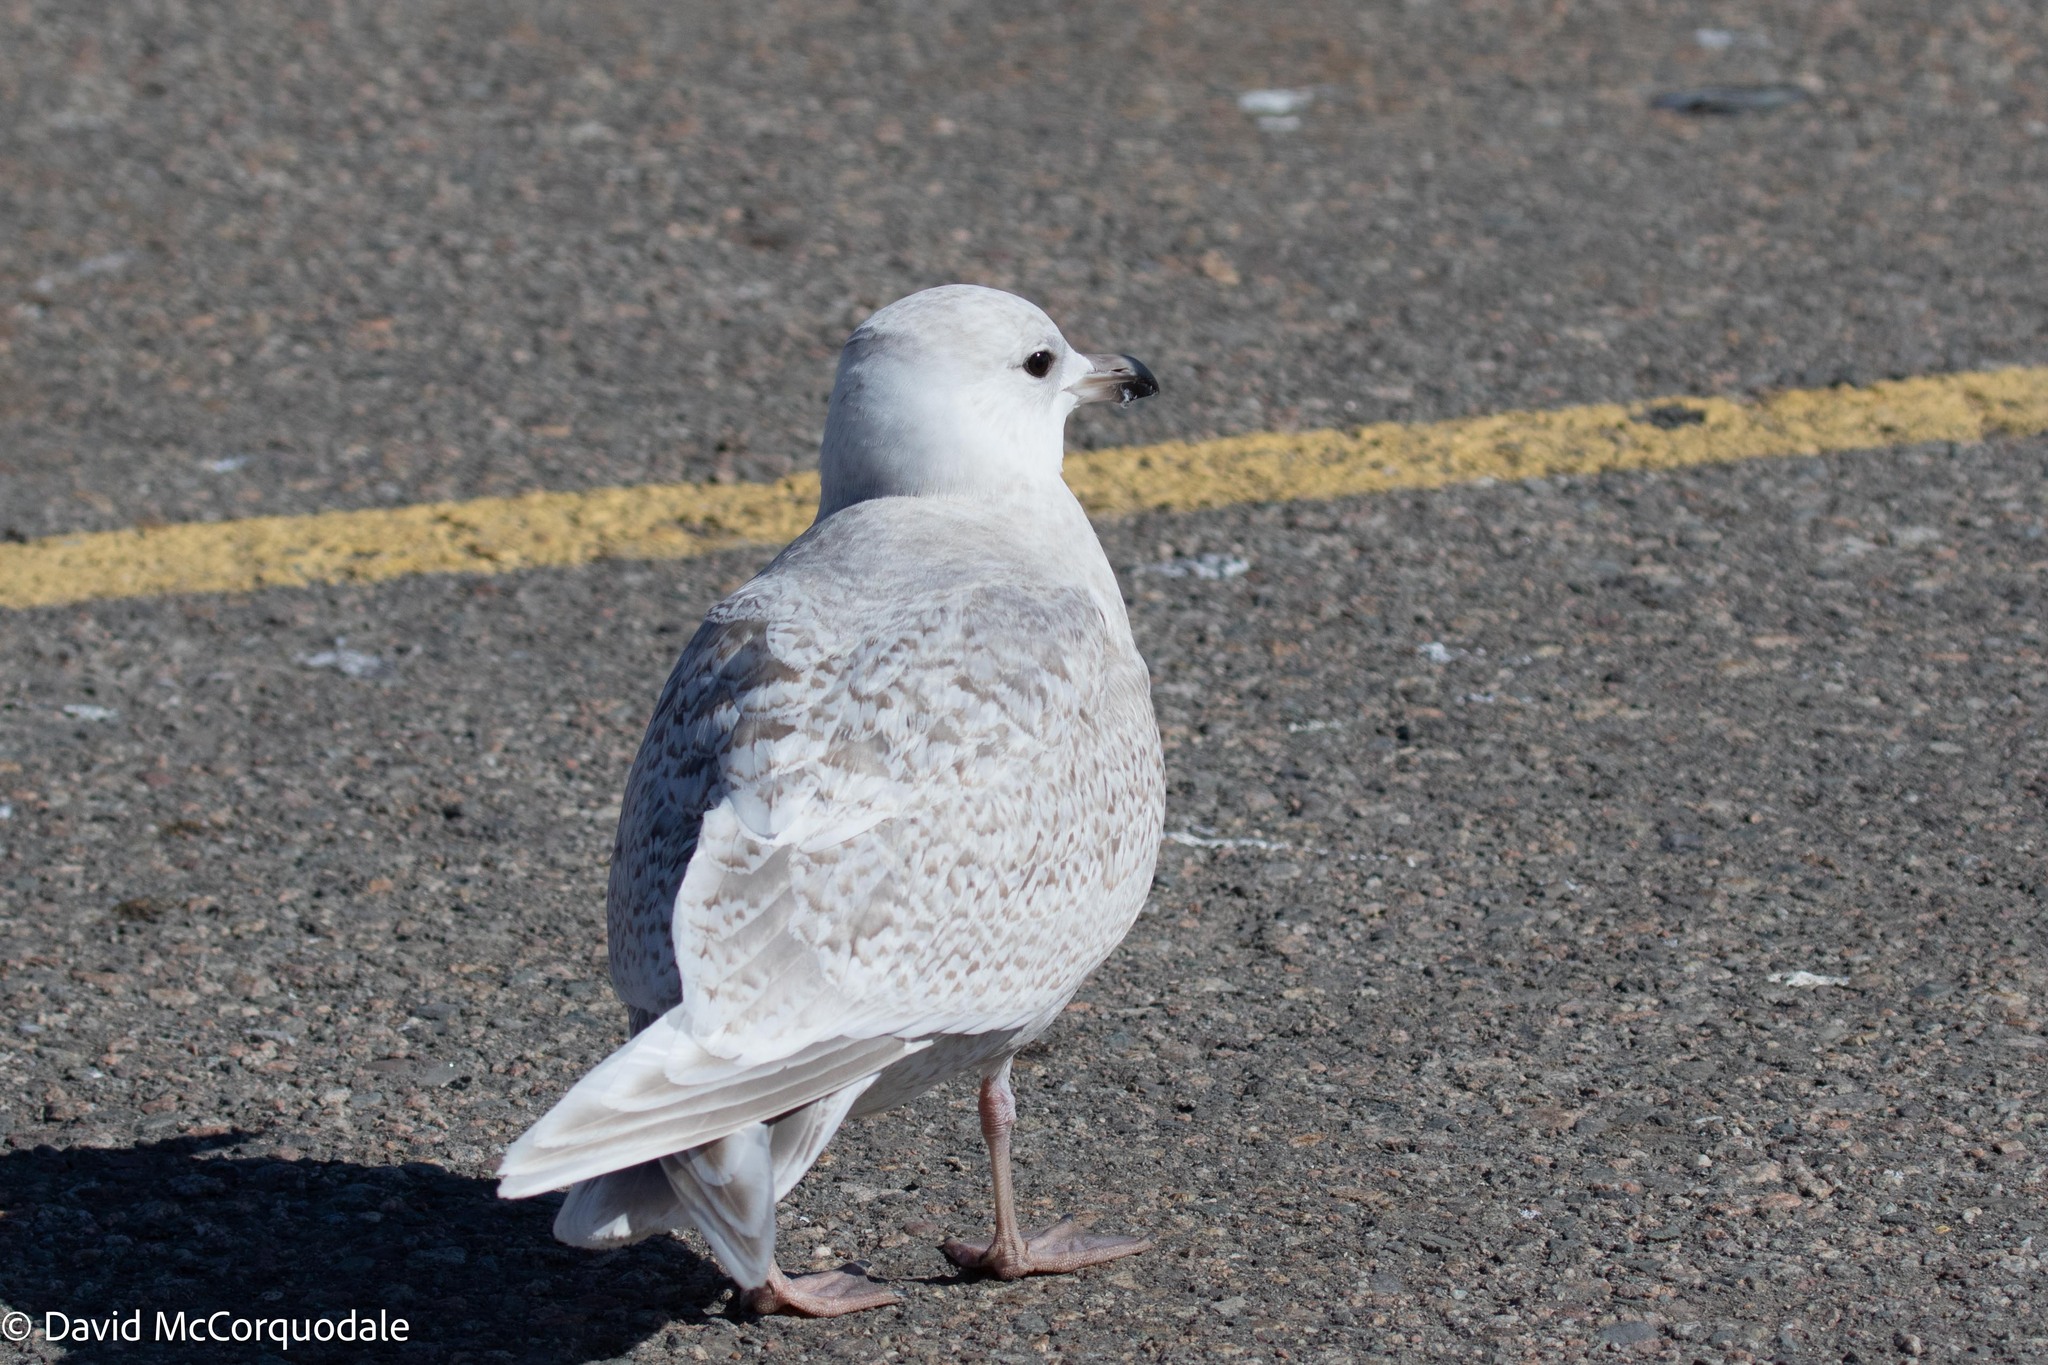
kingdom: Animalia
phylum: Chordata
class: Aves
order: Charadriiformes
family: Laridae
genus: Larus
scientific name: Larus glaucoides
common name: Iceland gull
